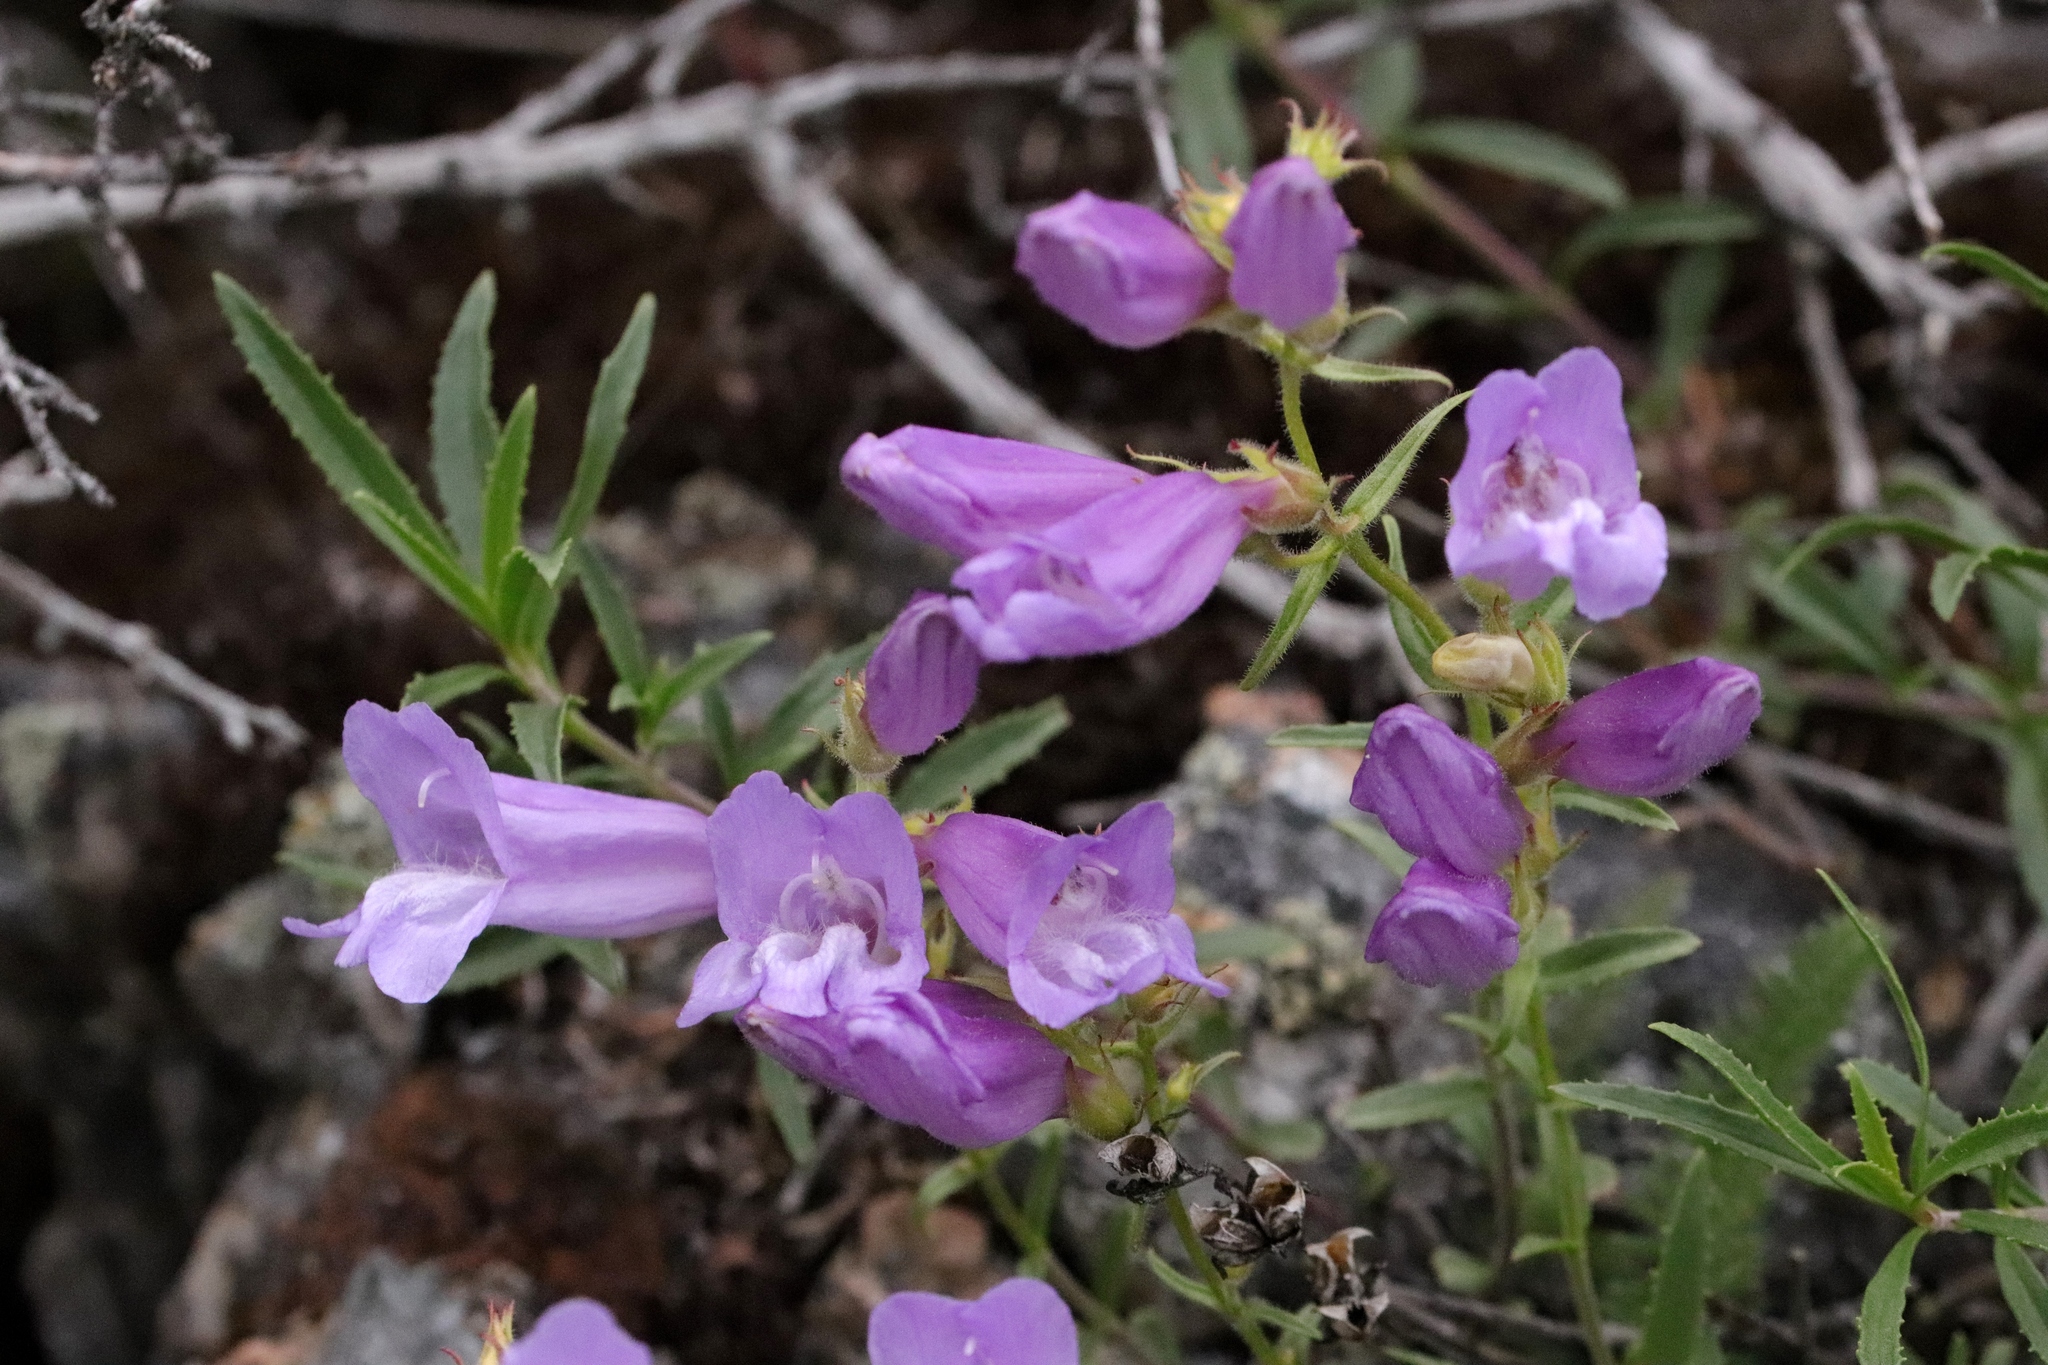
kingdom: Plantae
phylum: Tracheophyta
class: Magnoliopsida
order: Lamiales
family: Plantaginaceae
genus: Penstemon
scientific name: Penstemon fruticosus
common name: Bush penstemon
